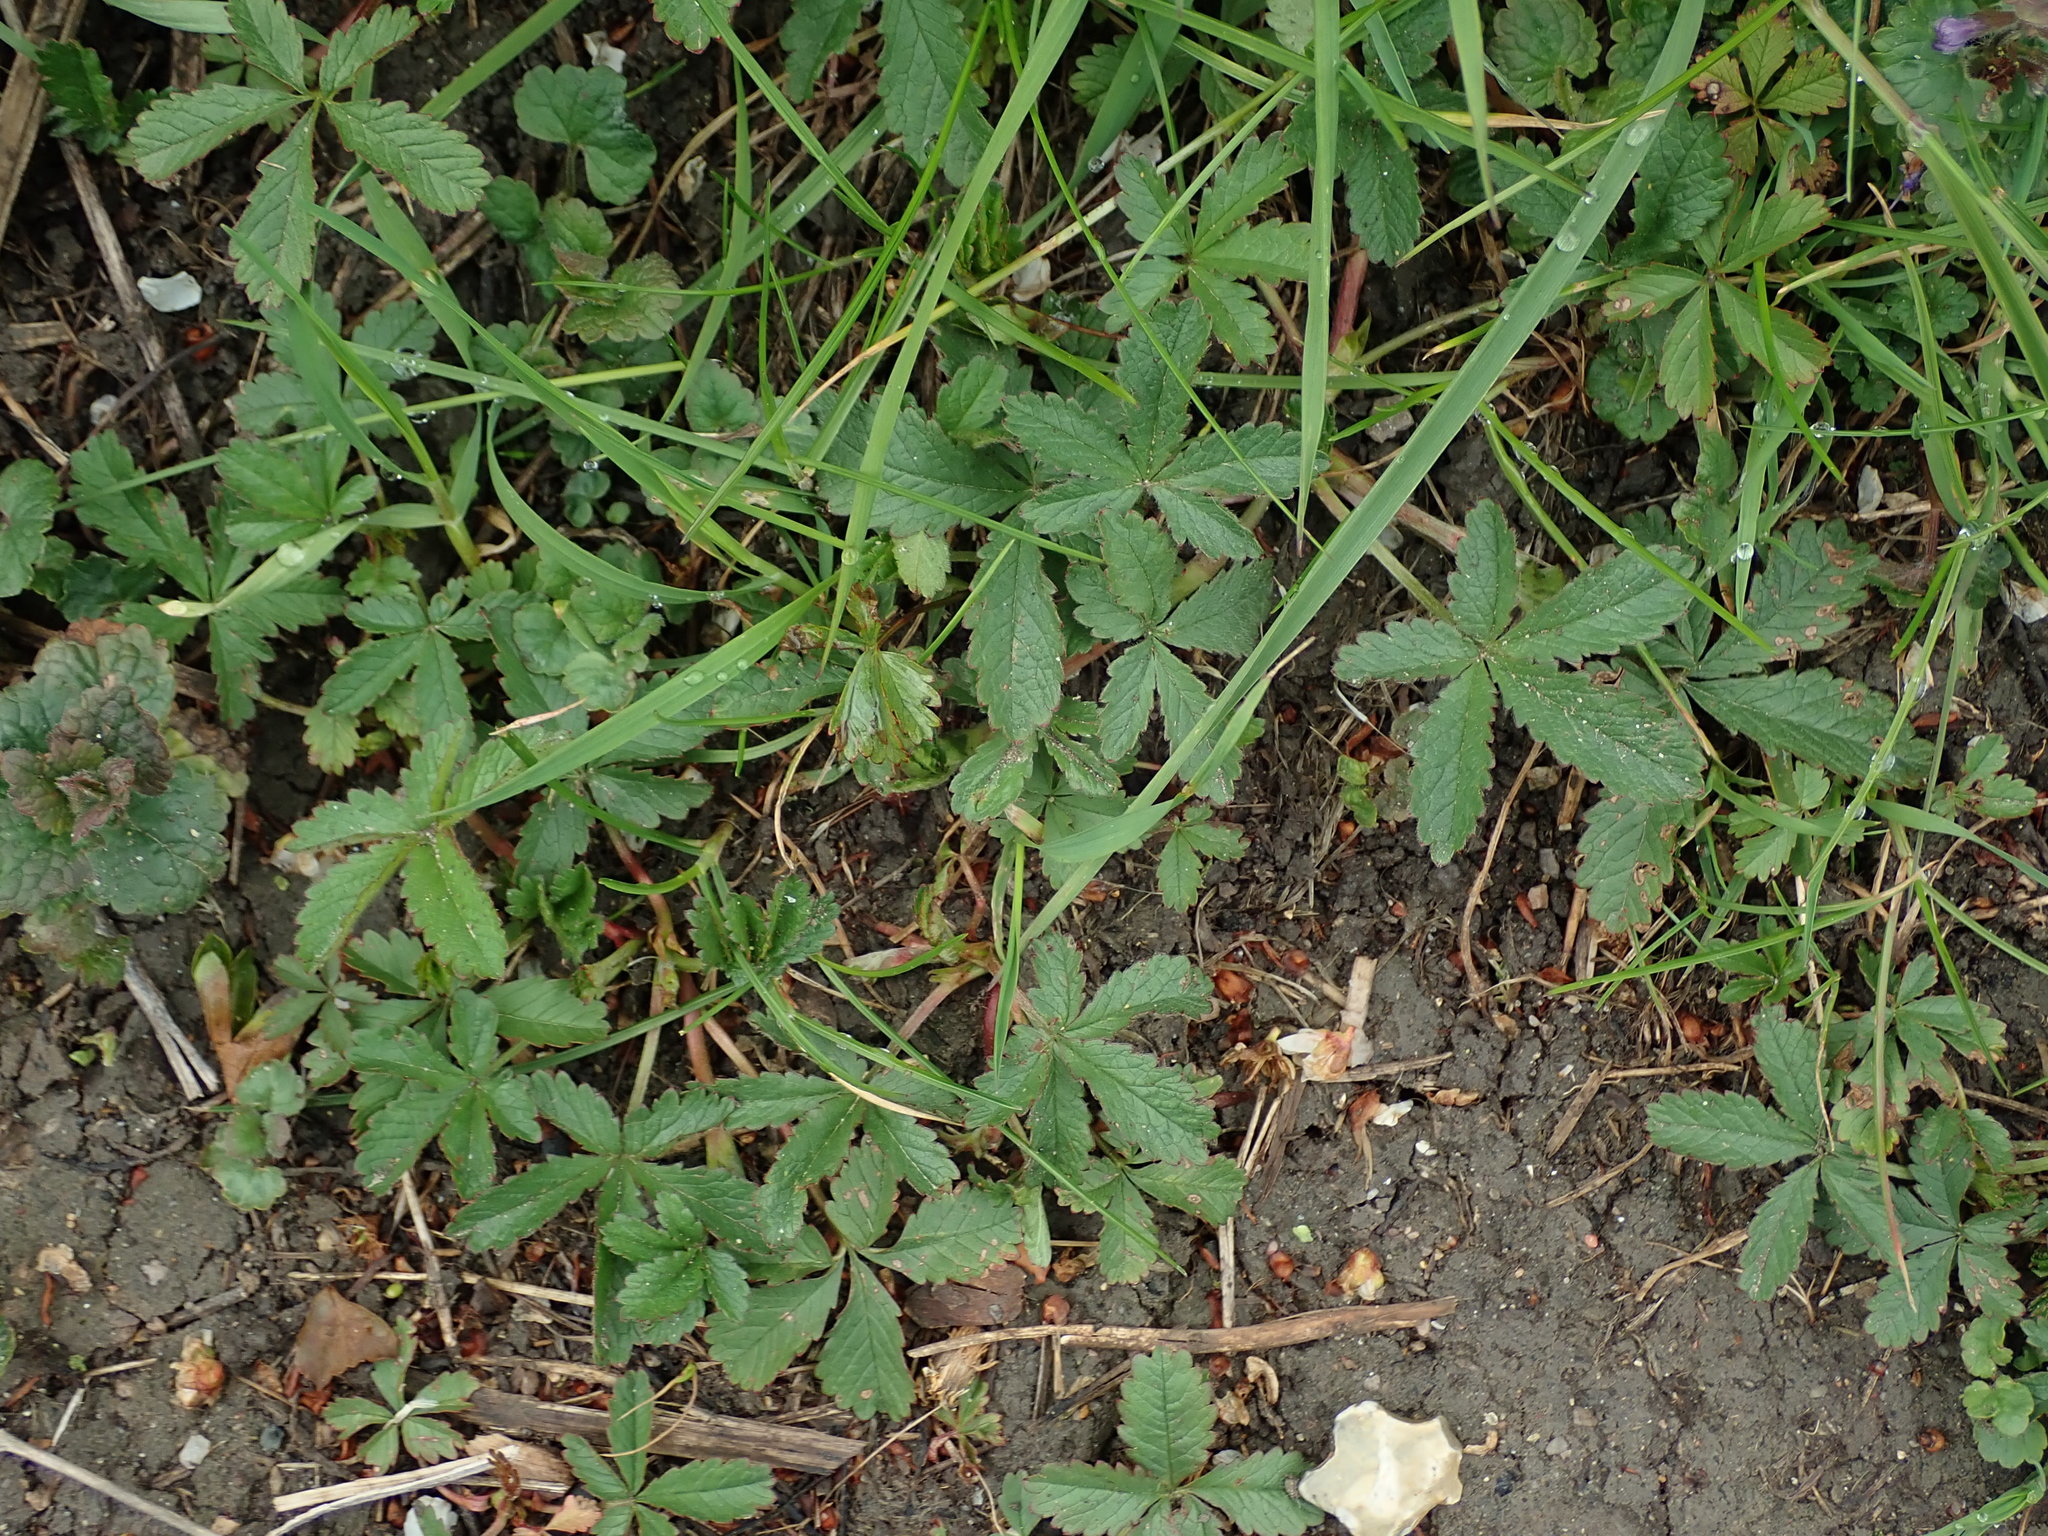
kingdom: Plantae
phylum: Tracheophyta
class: Magnoliopsida
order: Rosales
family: Rosaceae
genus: Potentilla
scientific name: Potentilla reptans
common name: Creeping cinquefoil
